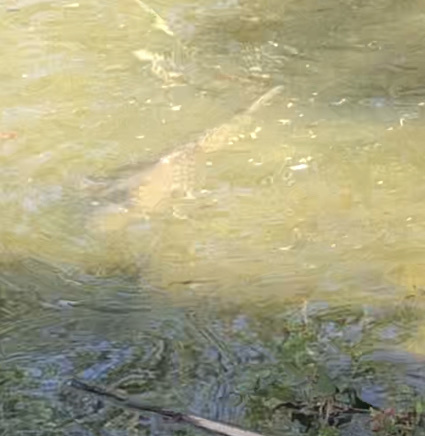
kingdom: Animalia
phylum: Chordata
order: Cypriniformes
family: Cyprinidae
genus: Cyprinus
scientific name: Cyprinus carpio
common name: Common carp
